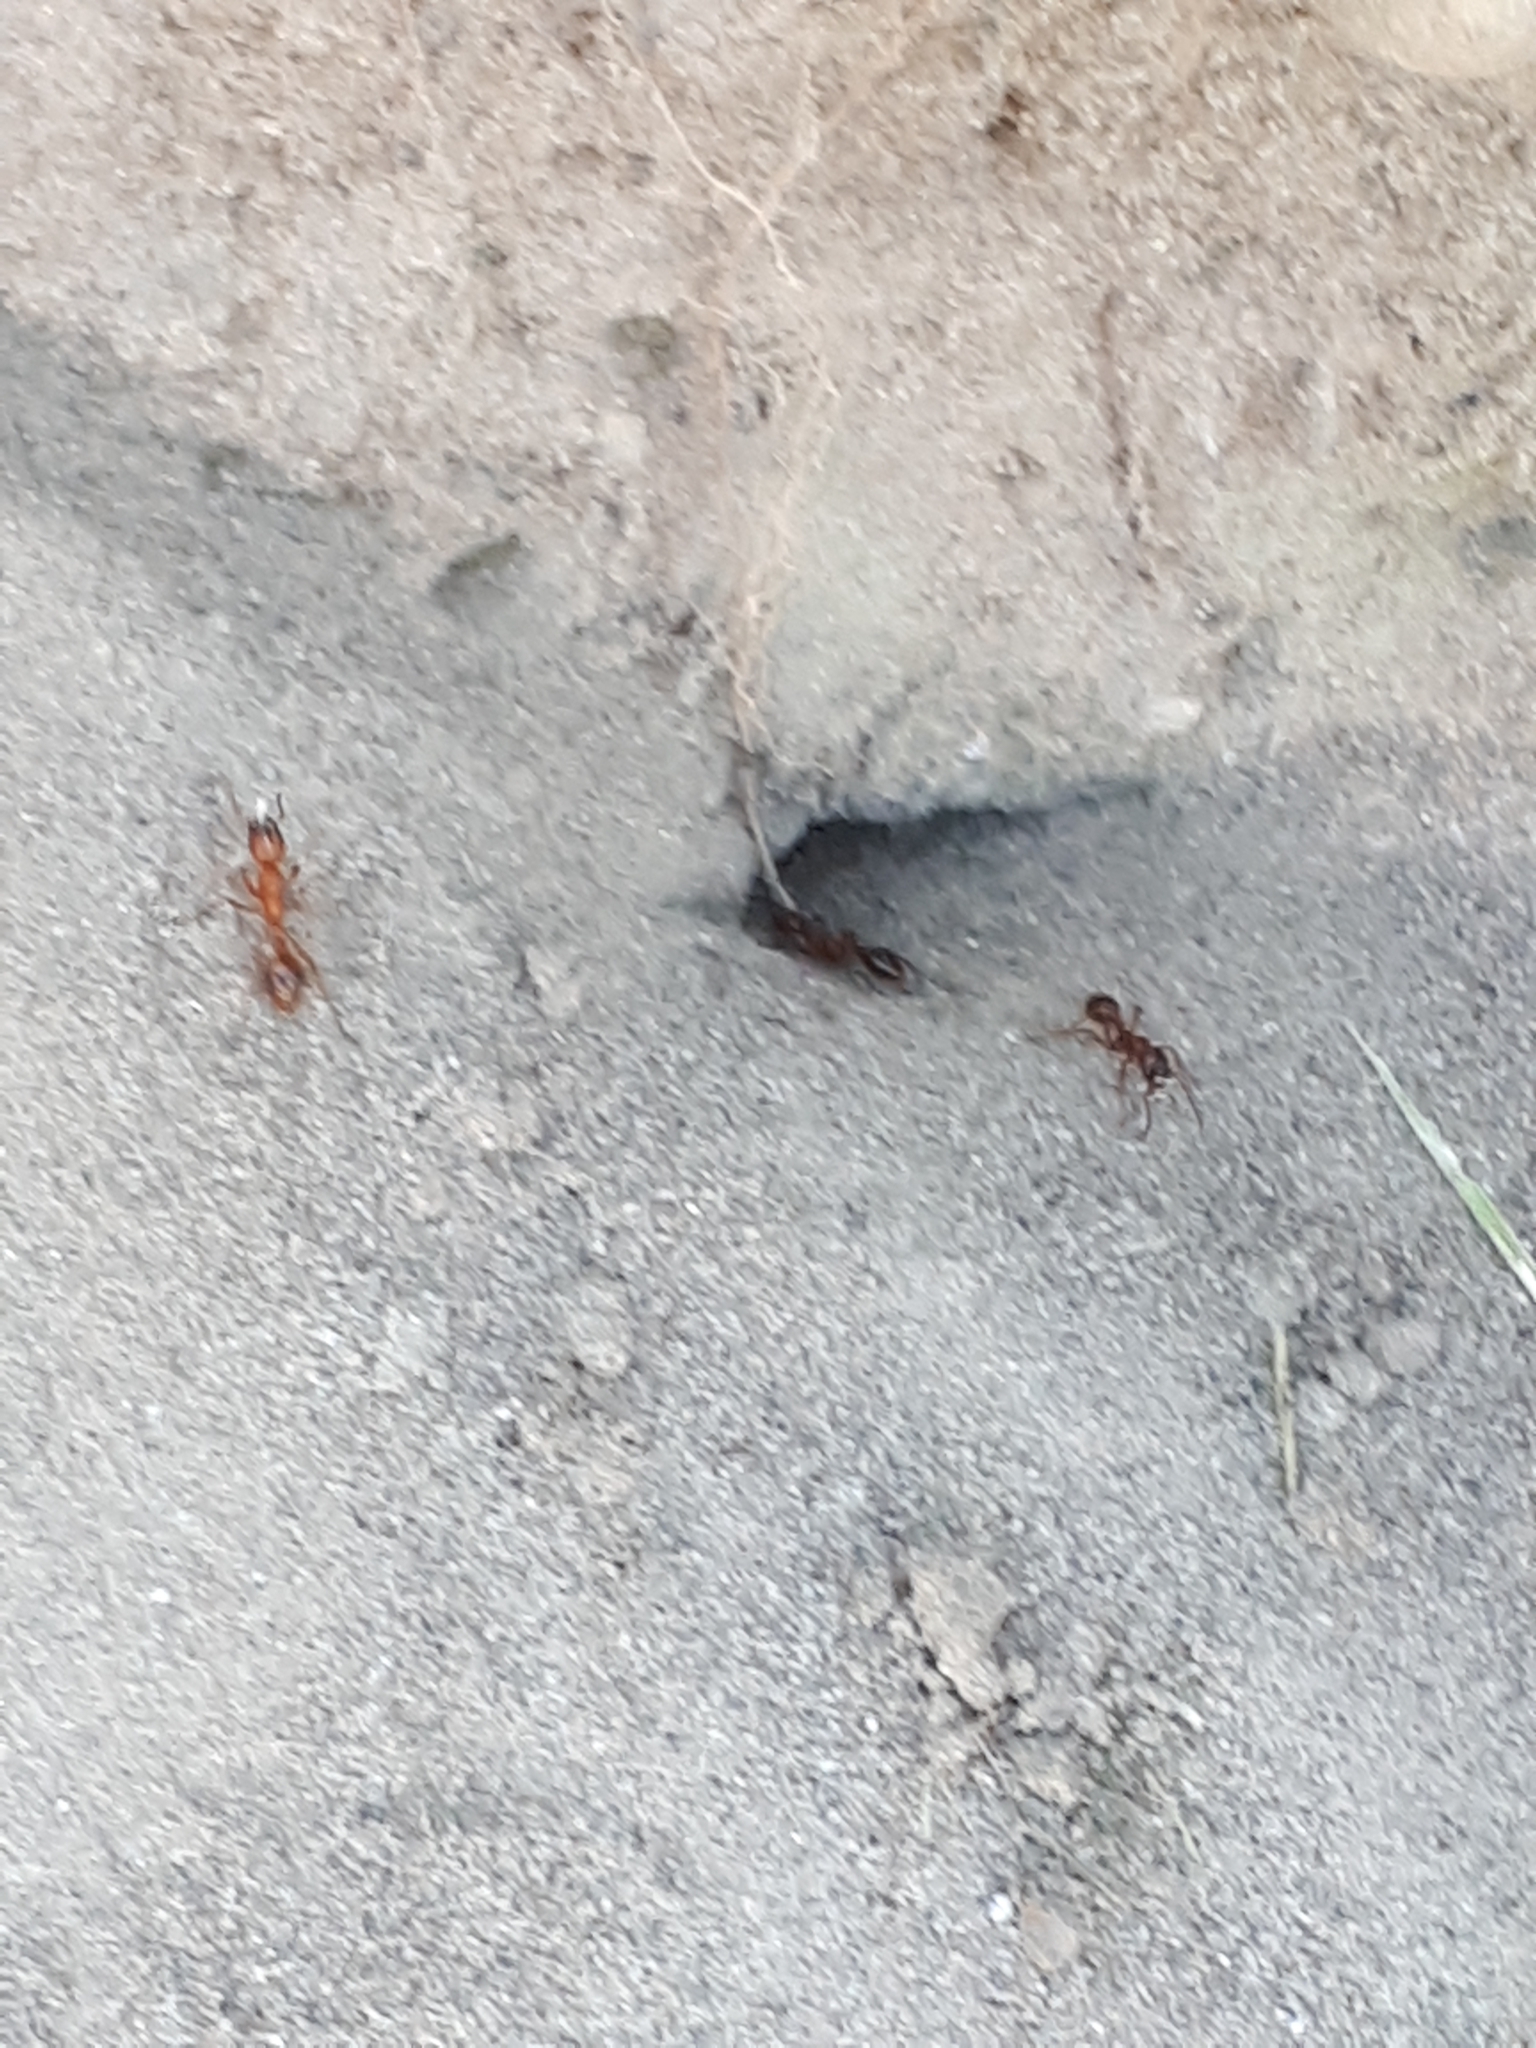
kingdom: Animalia
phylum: Arthropoda
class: Insecta
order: Hymenoptera
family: Formicidae
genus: Manica
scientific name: Manica rubida
